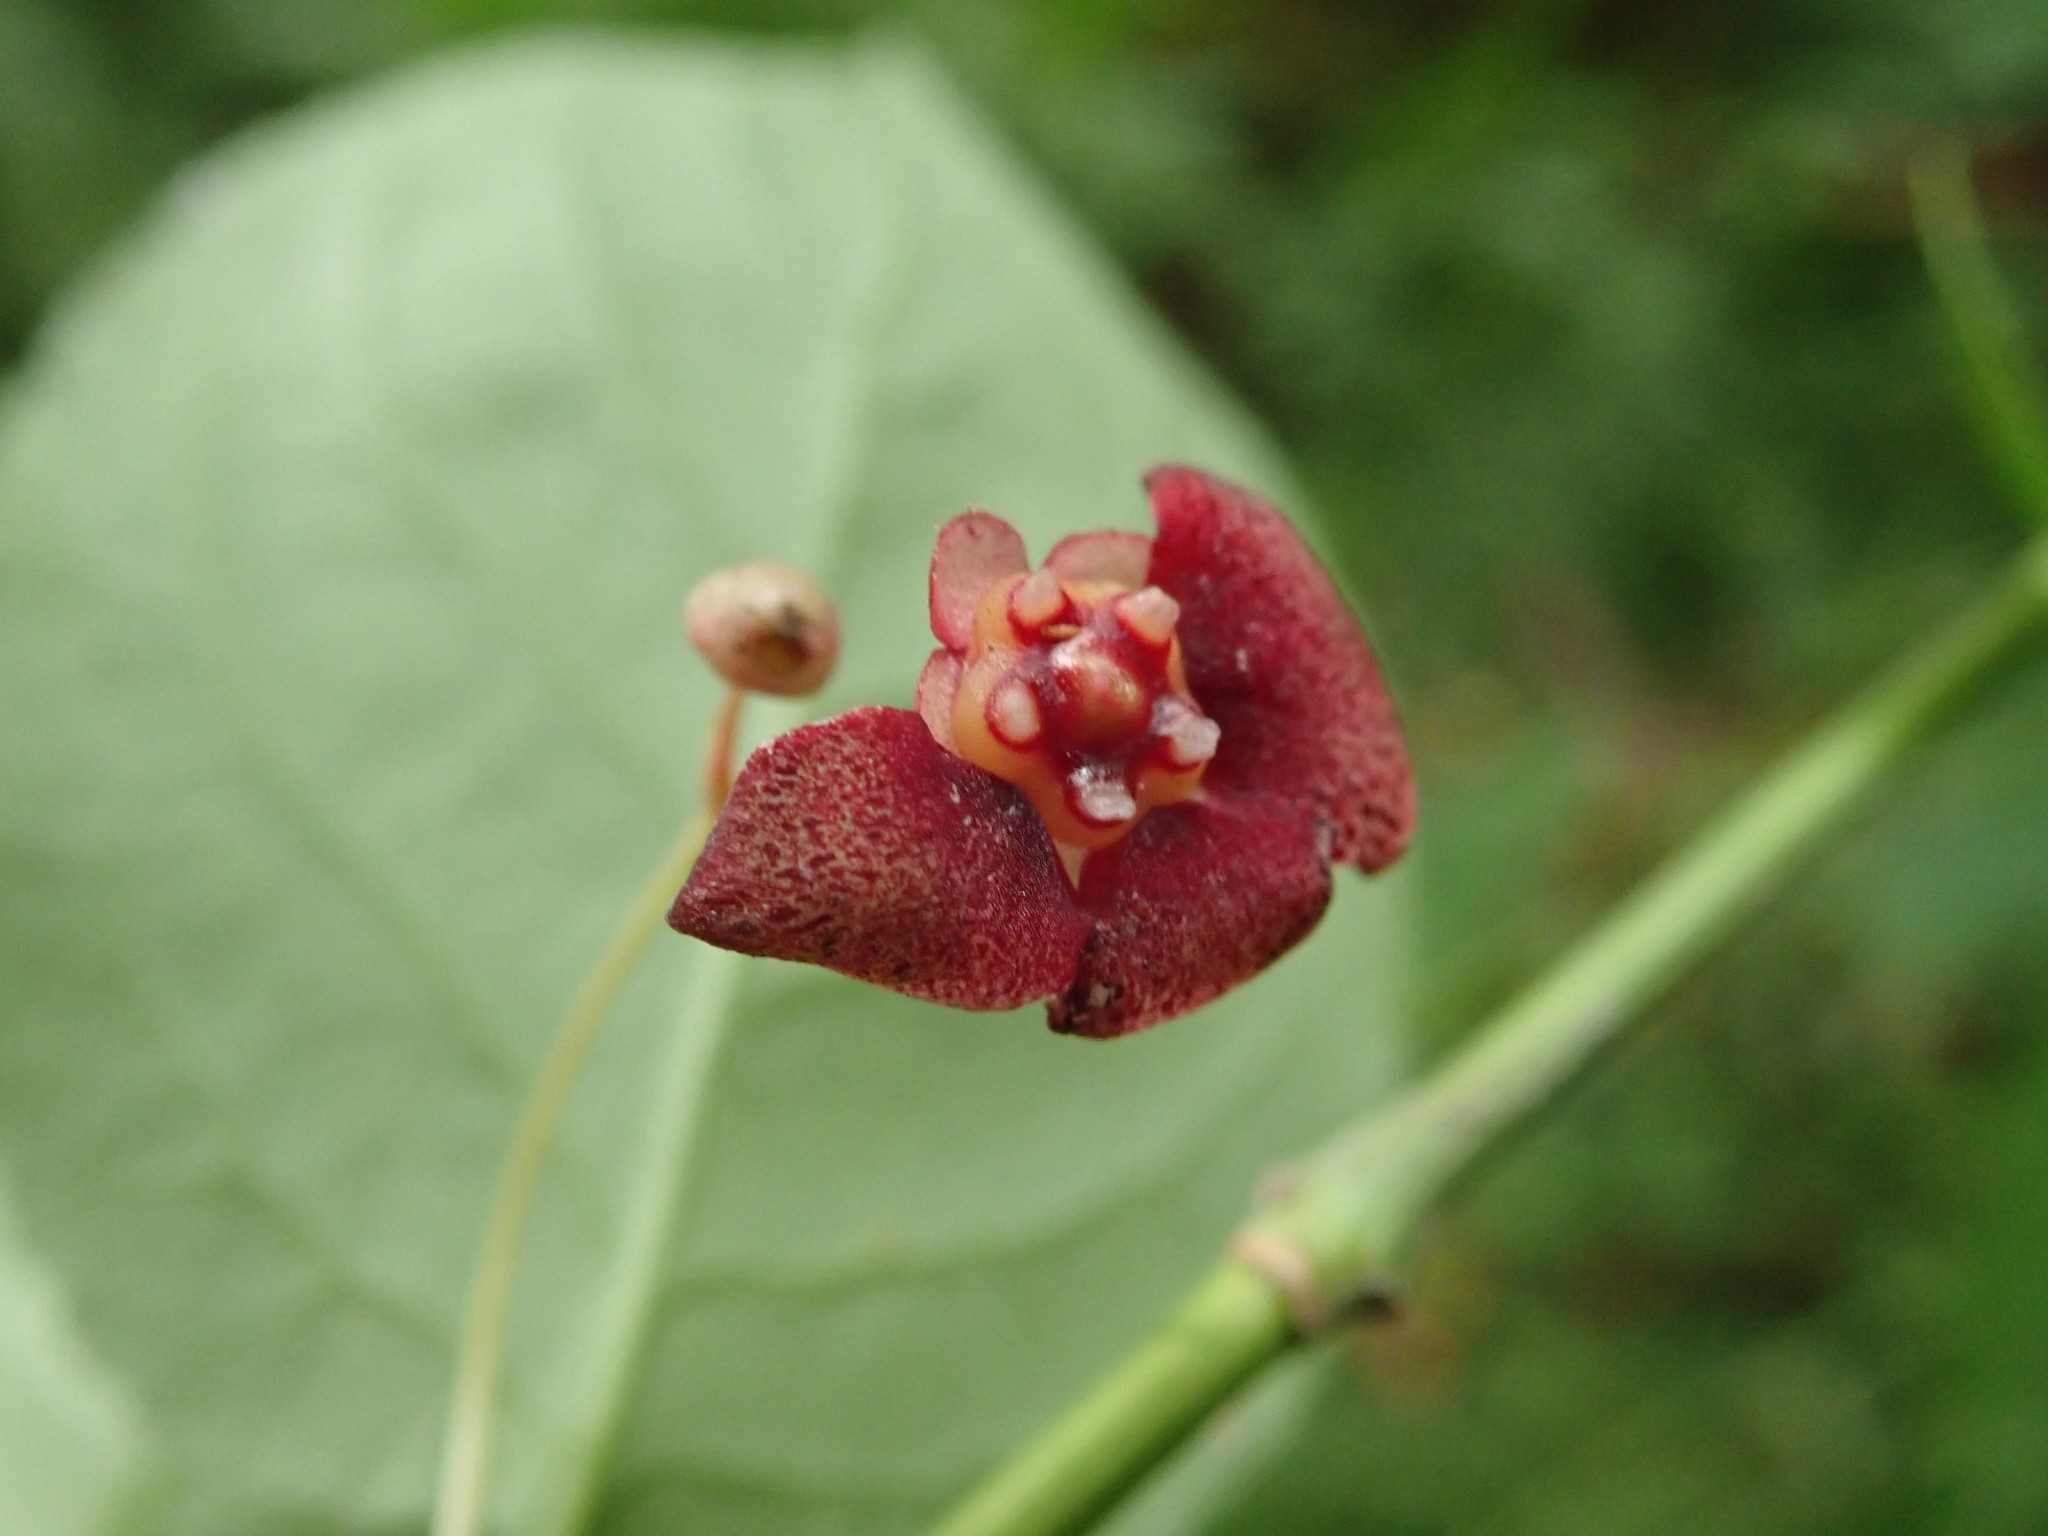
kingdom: Plantae
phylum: Tracheophyta
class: Magnoliopsida
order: Celastrales
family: Celastraceae
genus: Euonymus
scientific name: Euonymus occidentalis
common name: Western burningbush
